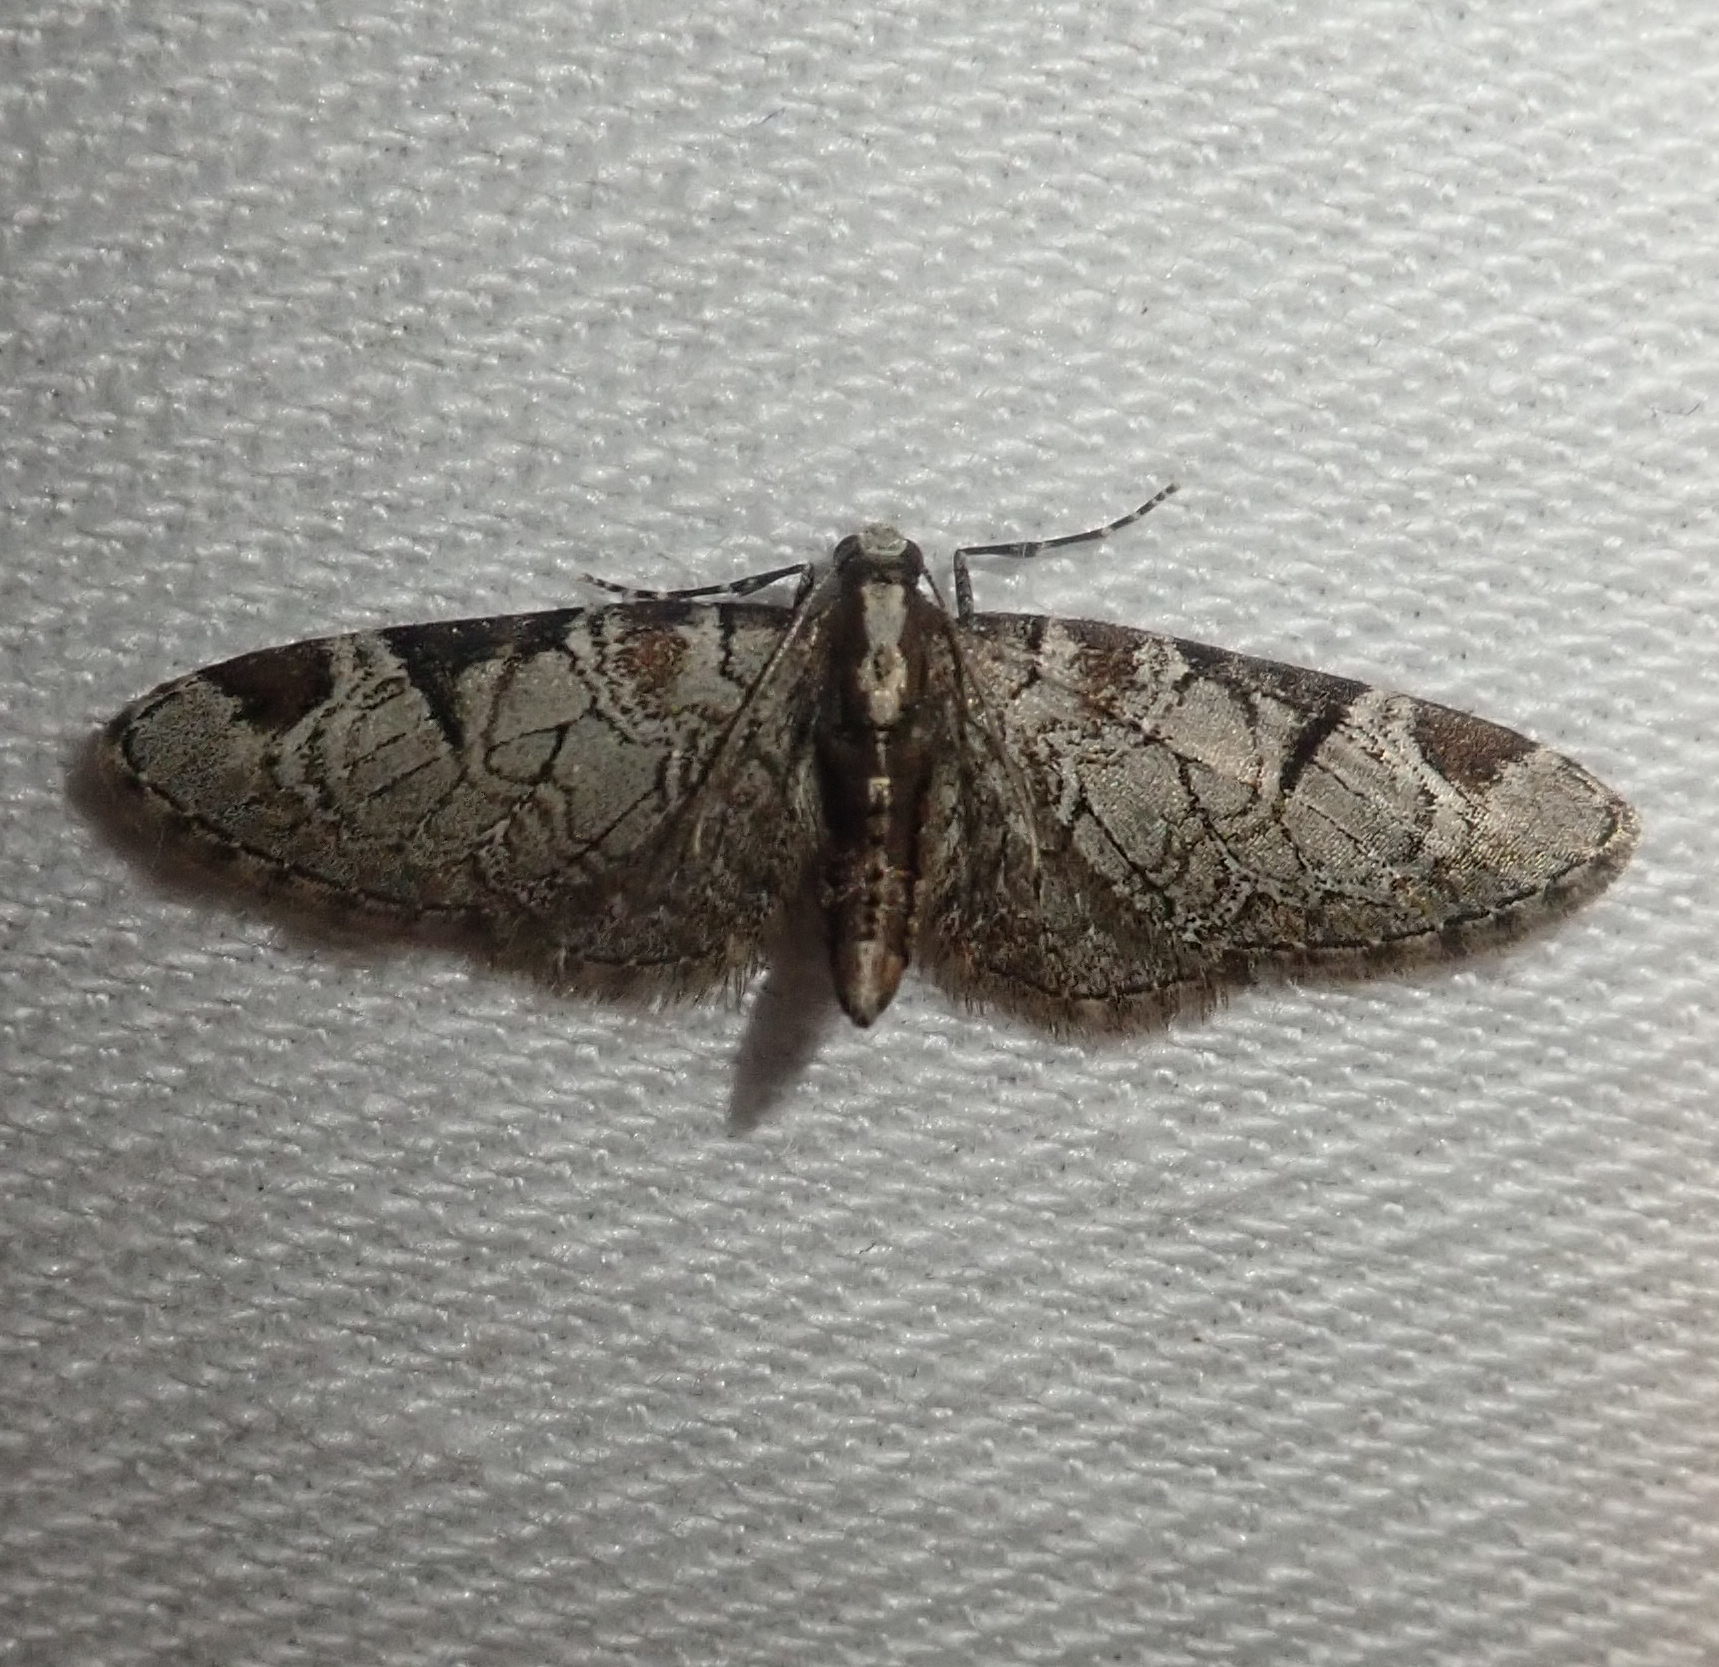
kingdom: Animalia
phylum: Arthropoda
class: Insecta
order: Lepidoptera
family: Geometridae
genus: Eupithecia
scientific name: Eupithecia insigniata
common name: Pinion-spotted pug
